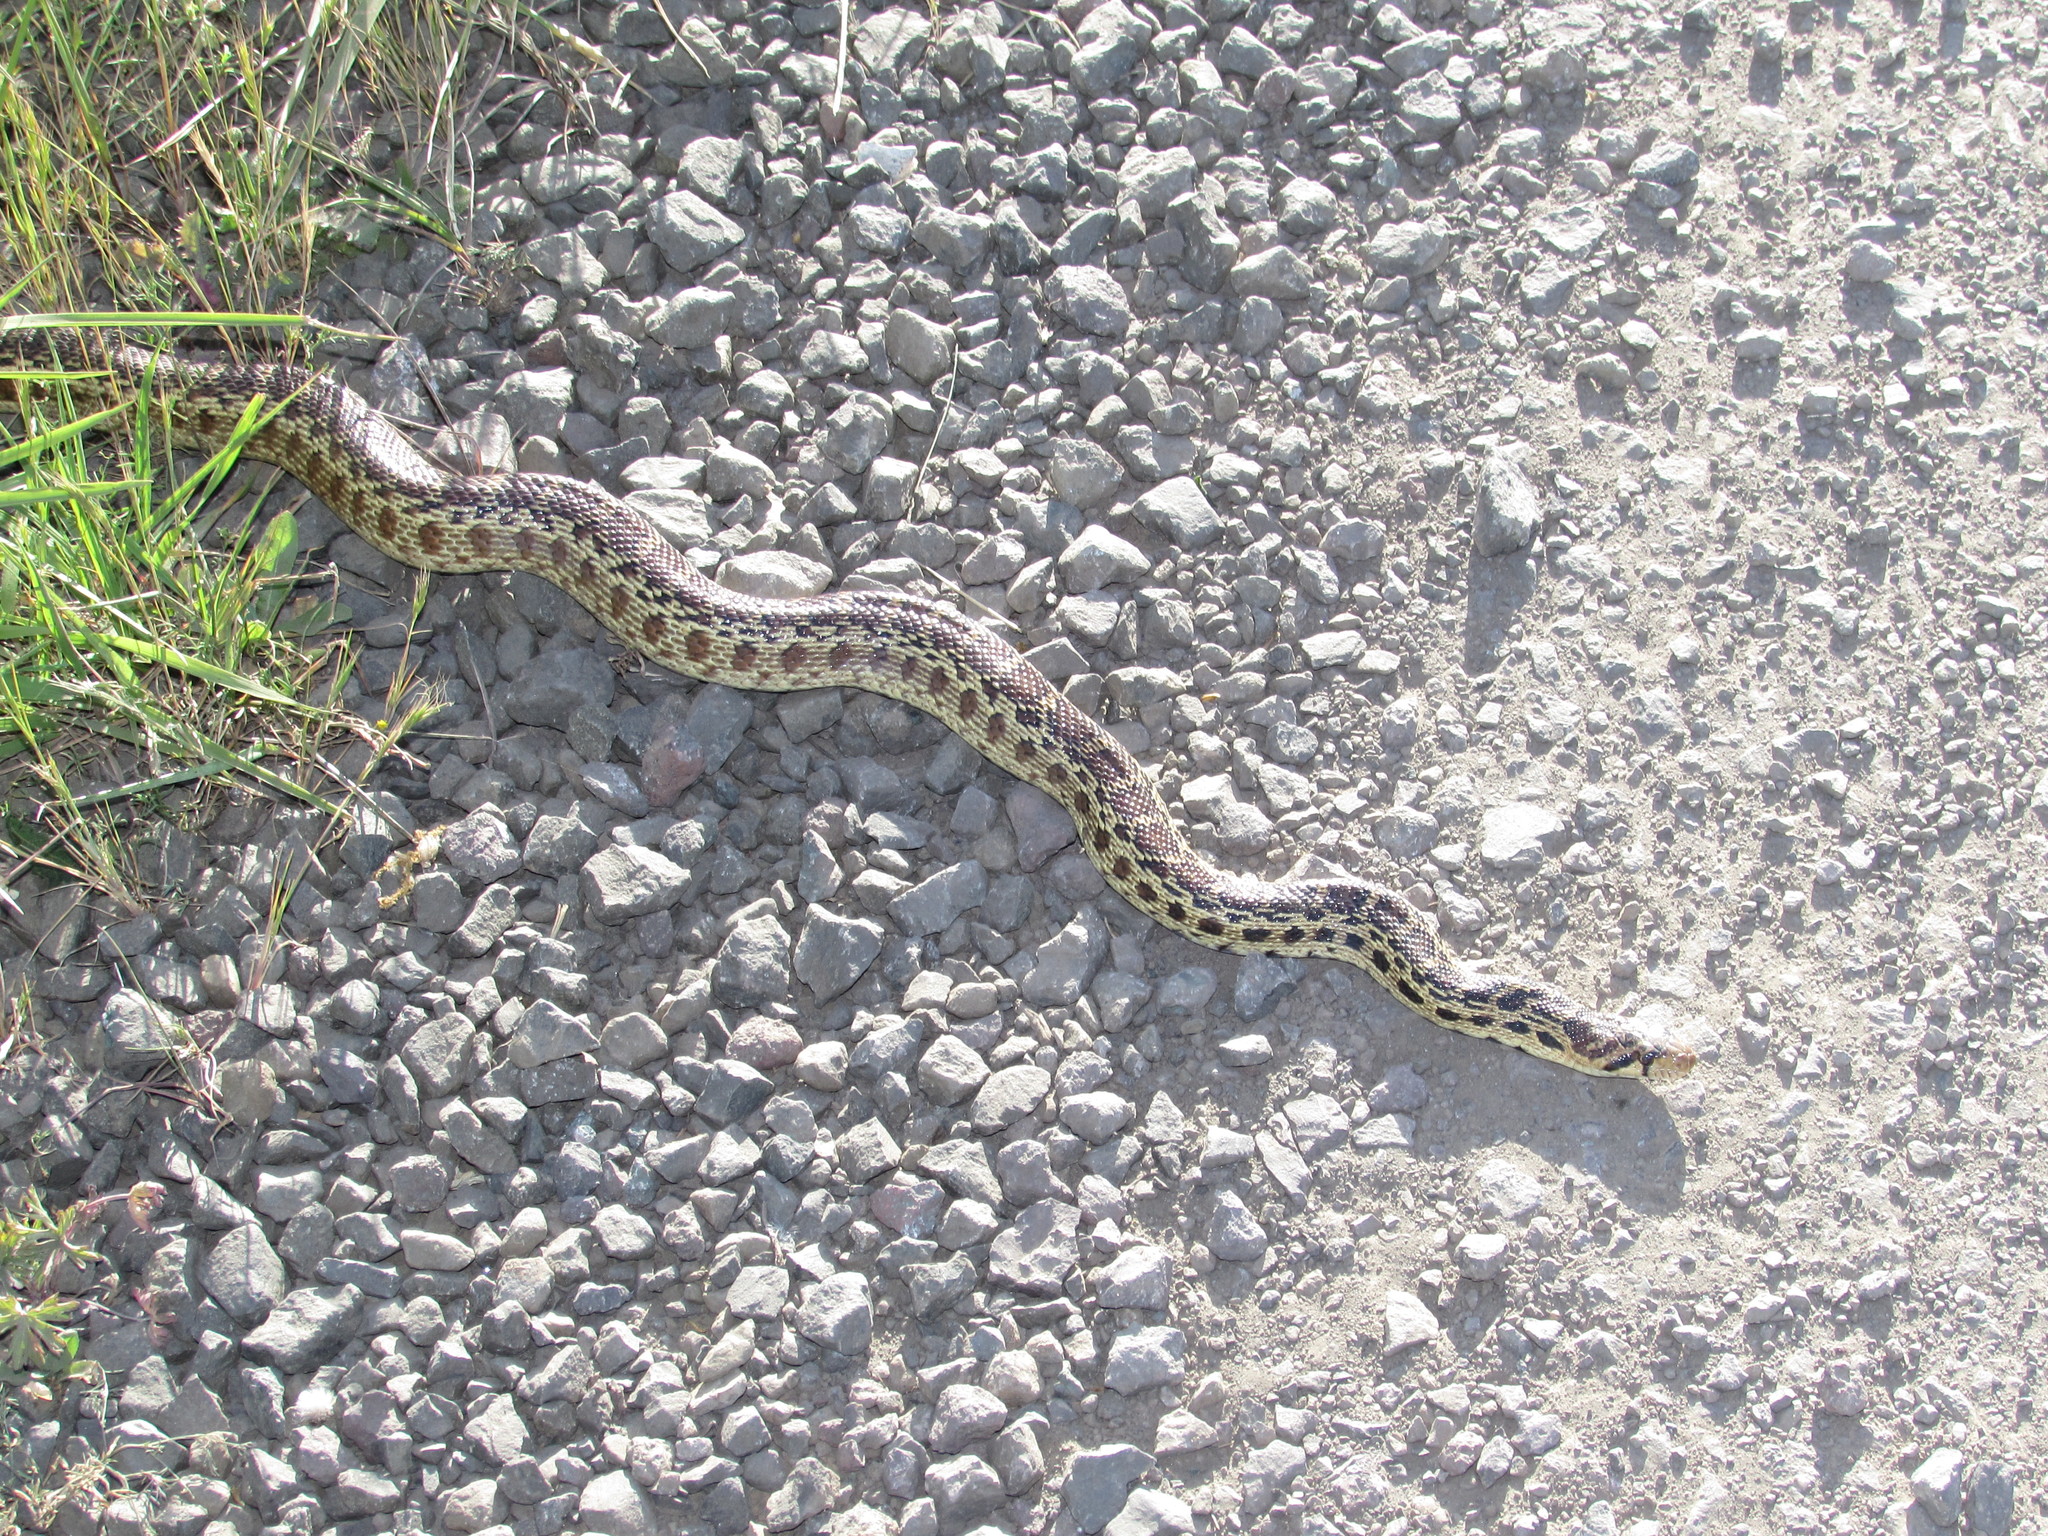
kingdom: Animalia
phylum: Chordata
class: Squamata
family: Colubridae
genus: Pituophis
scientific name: Pituophis catenifer
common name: Gopher snake
